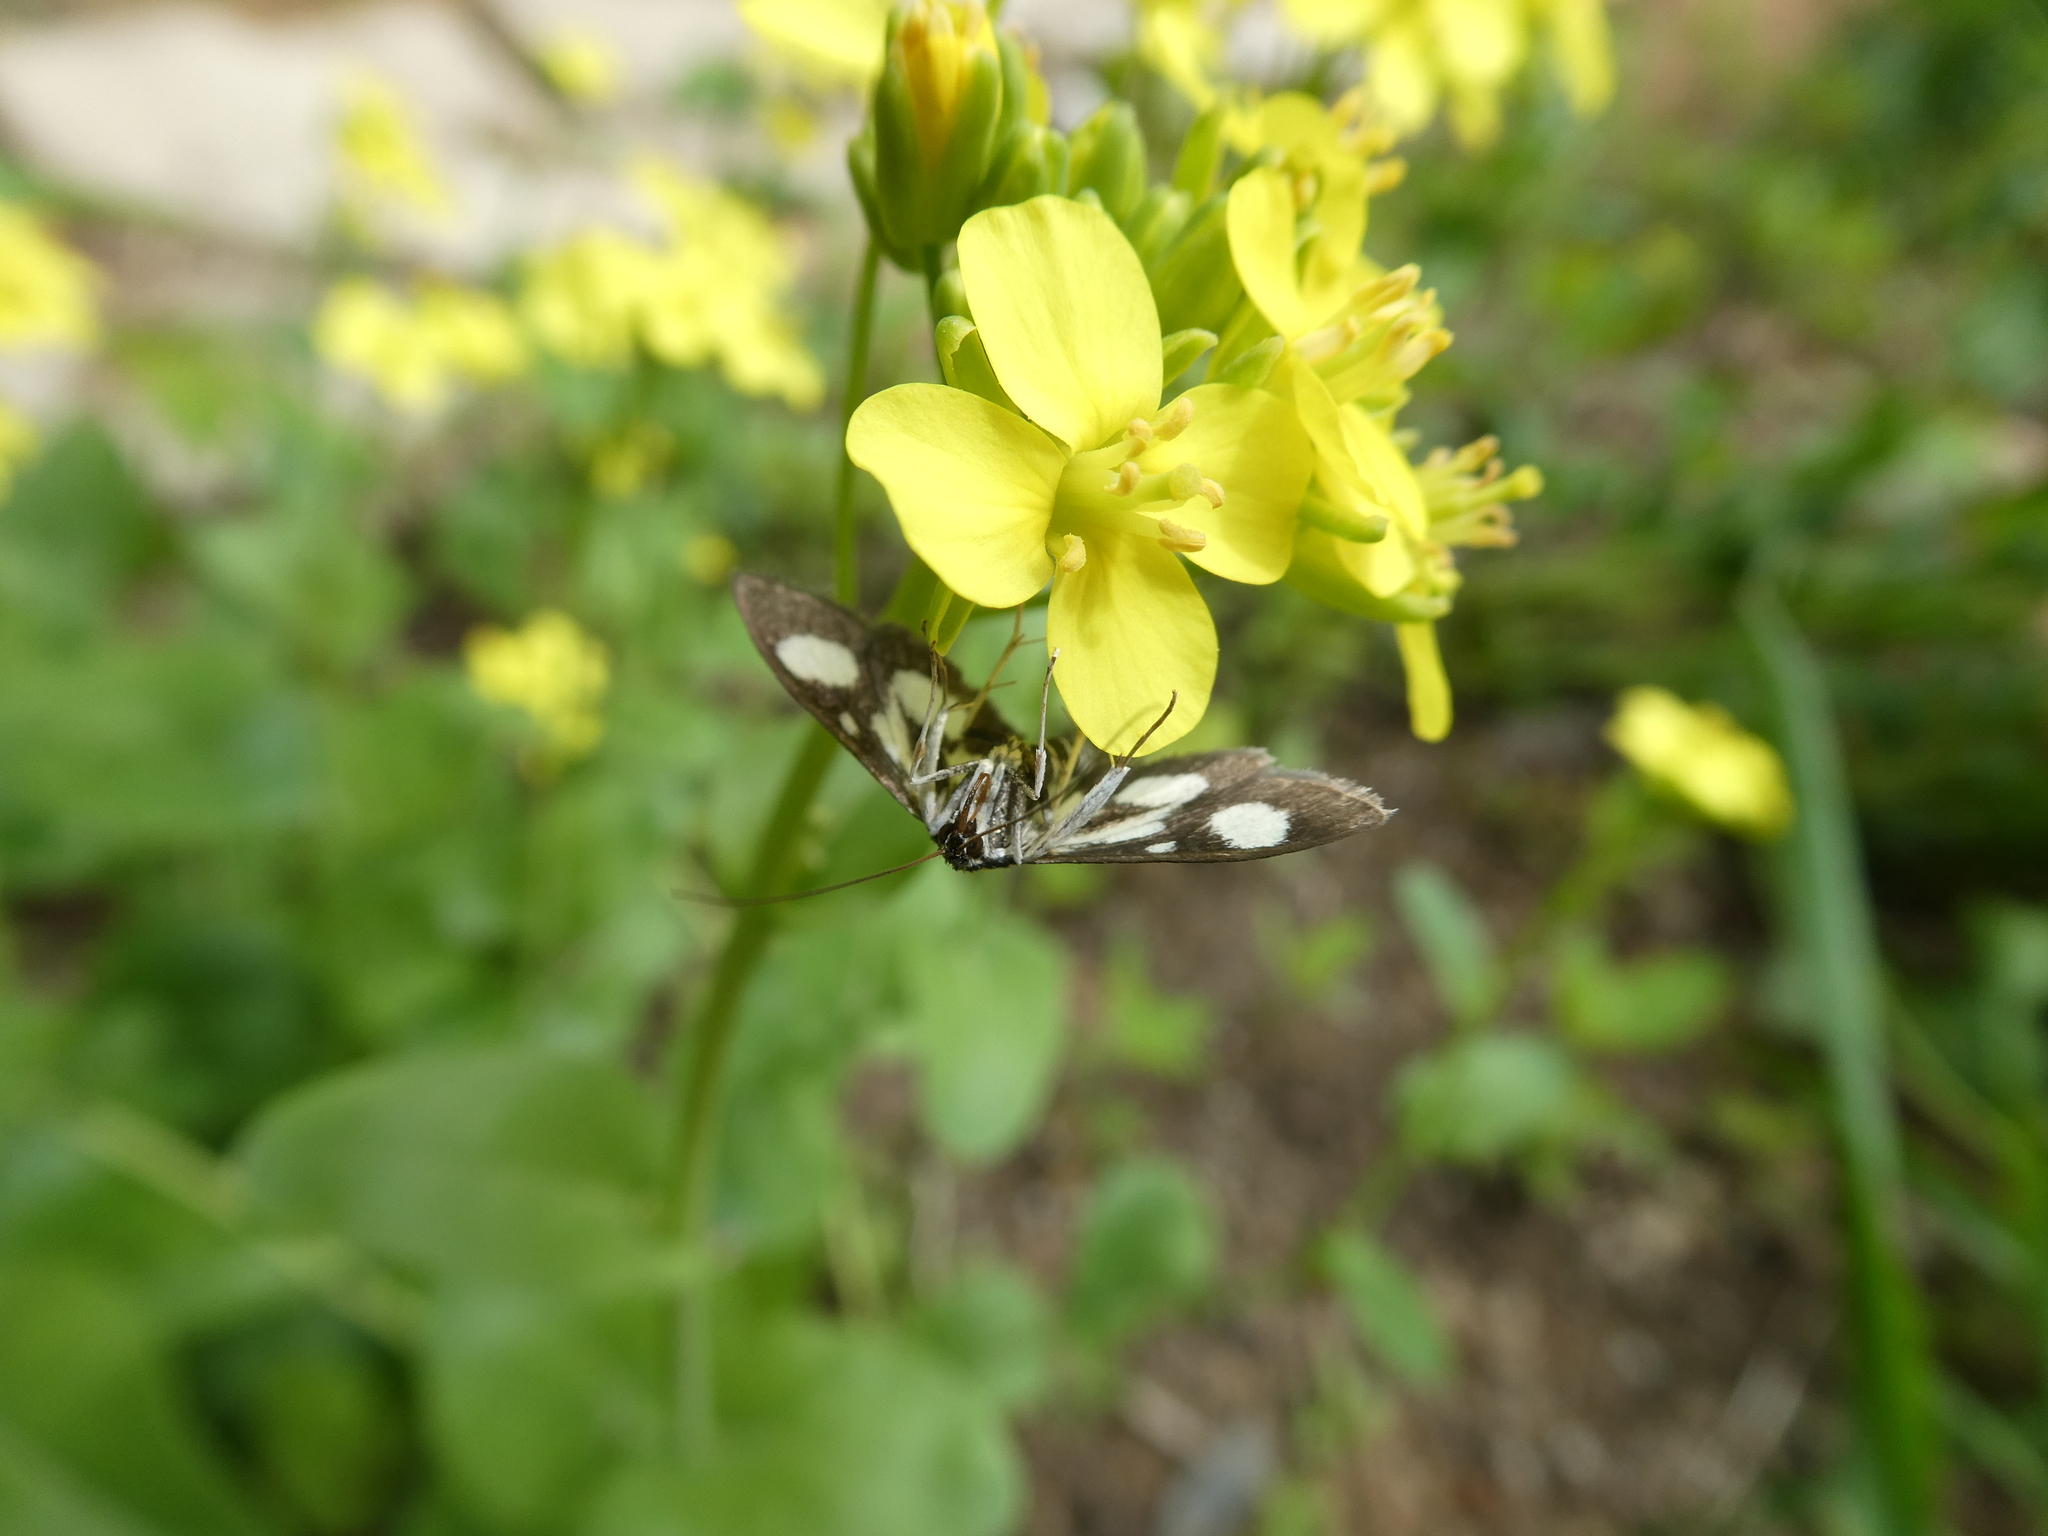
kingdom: Animalia
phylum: Arthropoda
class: Insecta
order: Lepidoptera
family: Crambidae
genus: Anania
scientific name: Anania funebris
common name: White-spotted sable moth
